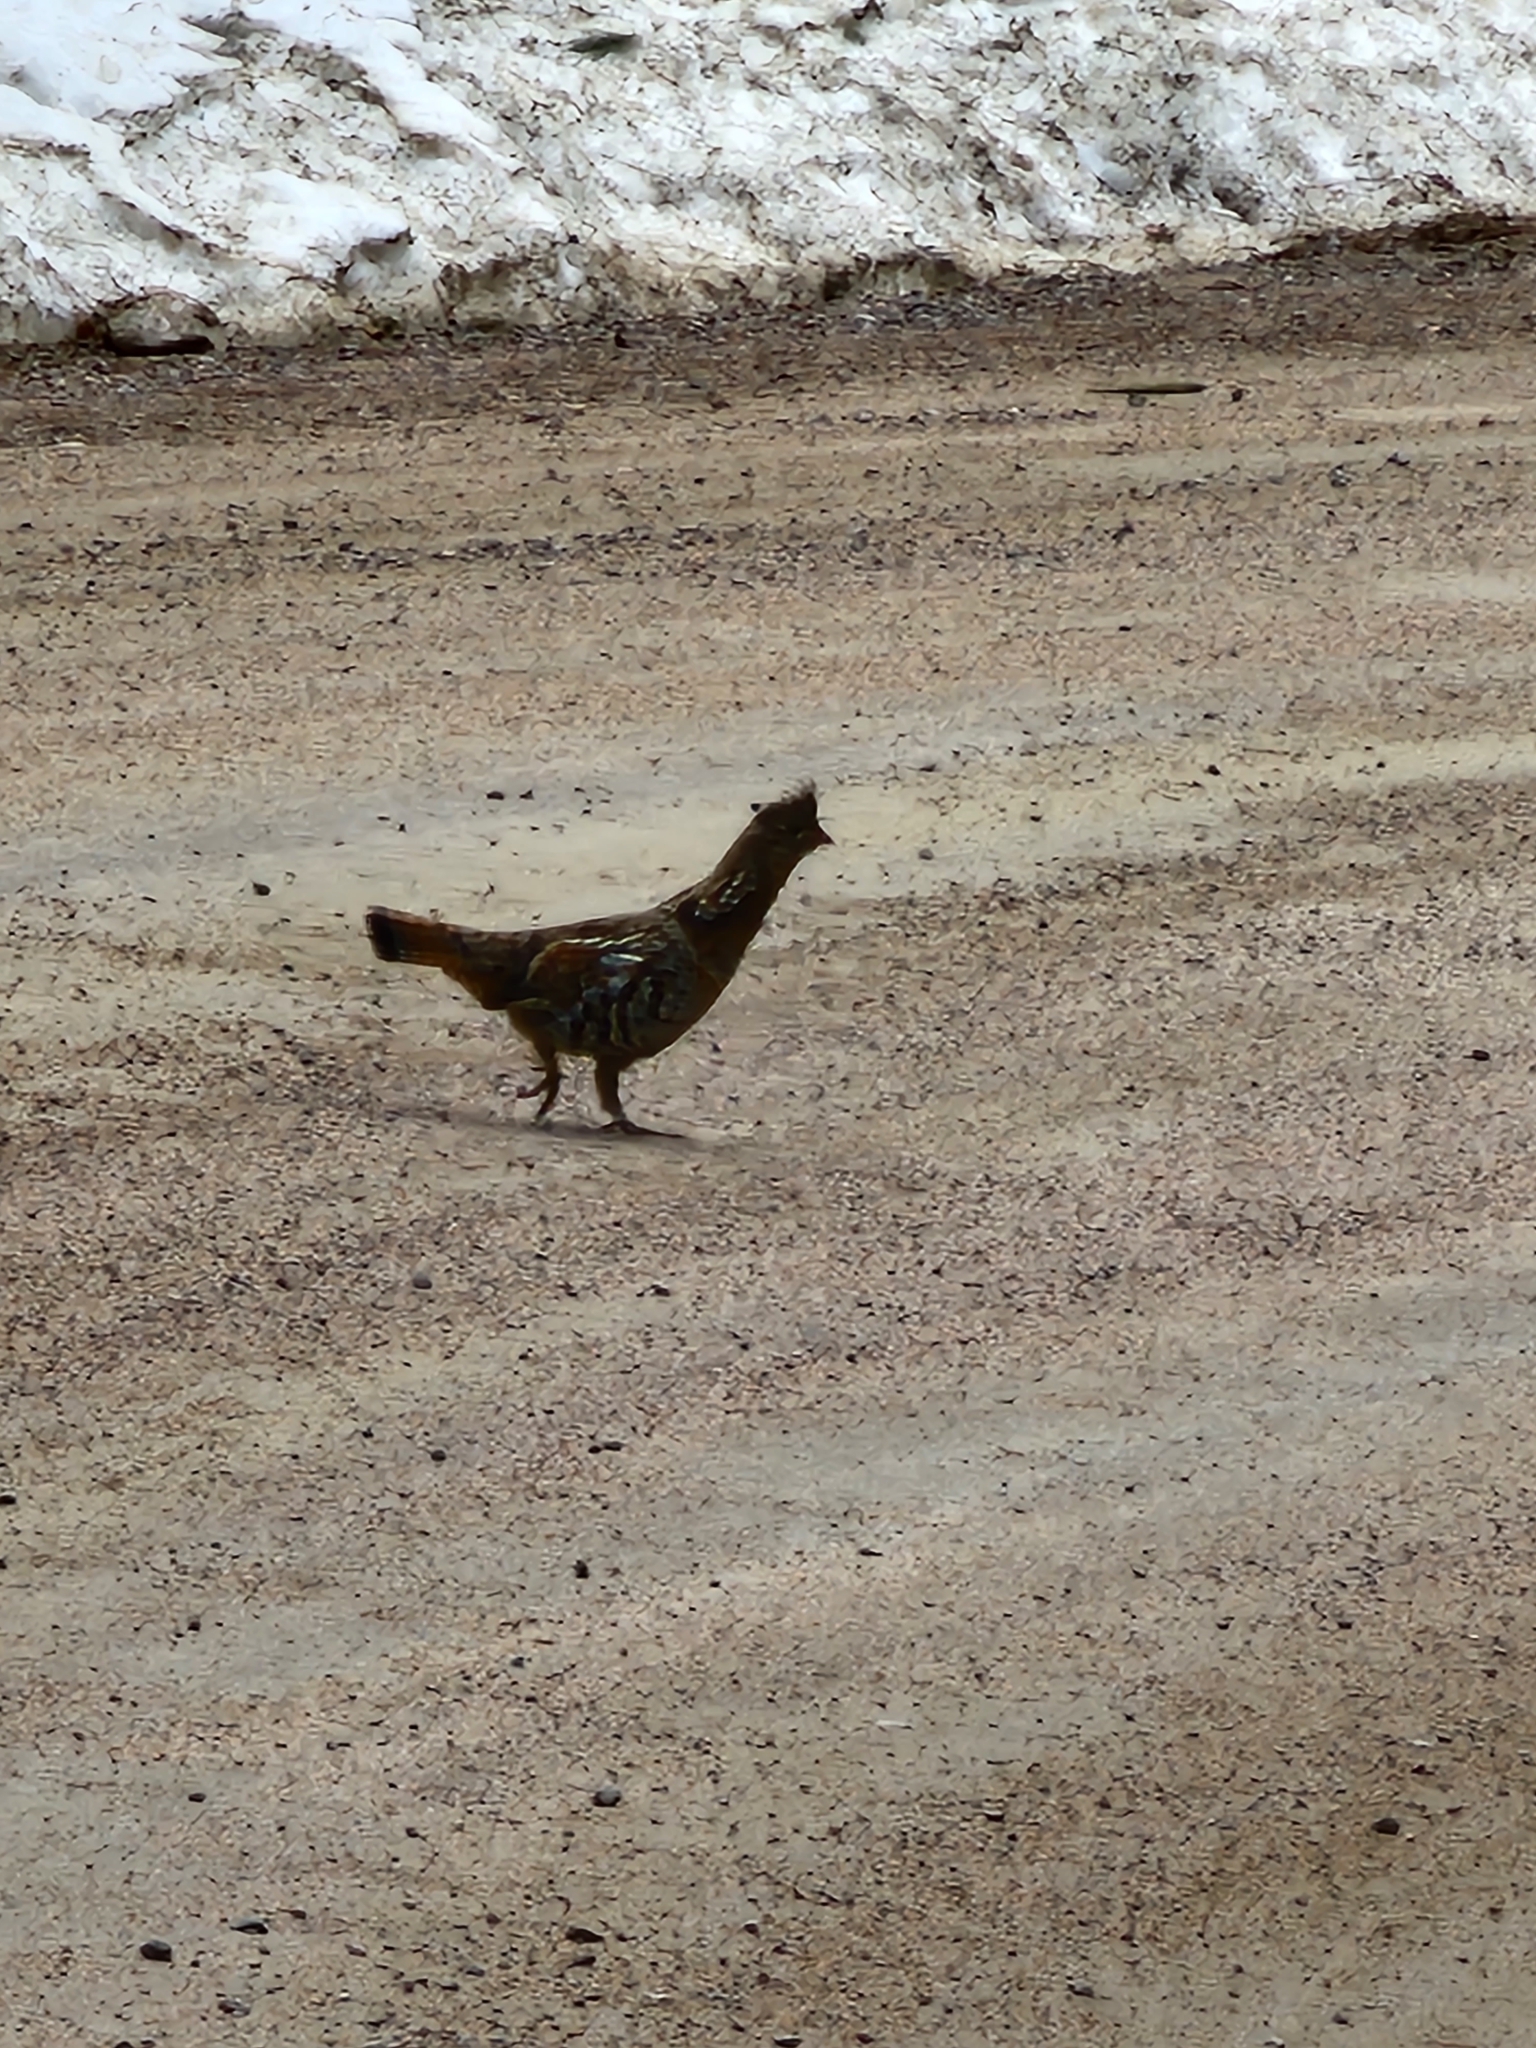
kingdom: Animalia
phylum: Chordata
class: Aves
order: Galliformes
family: Phasianidae
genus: Bonasa
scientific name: Bonasa umbellus
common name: Ruffed grouse
